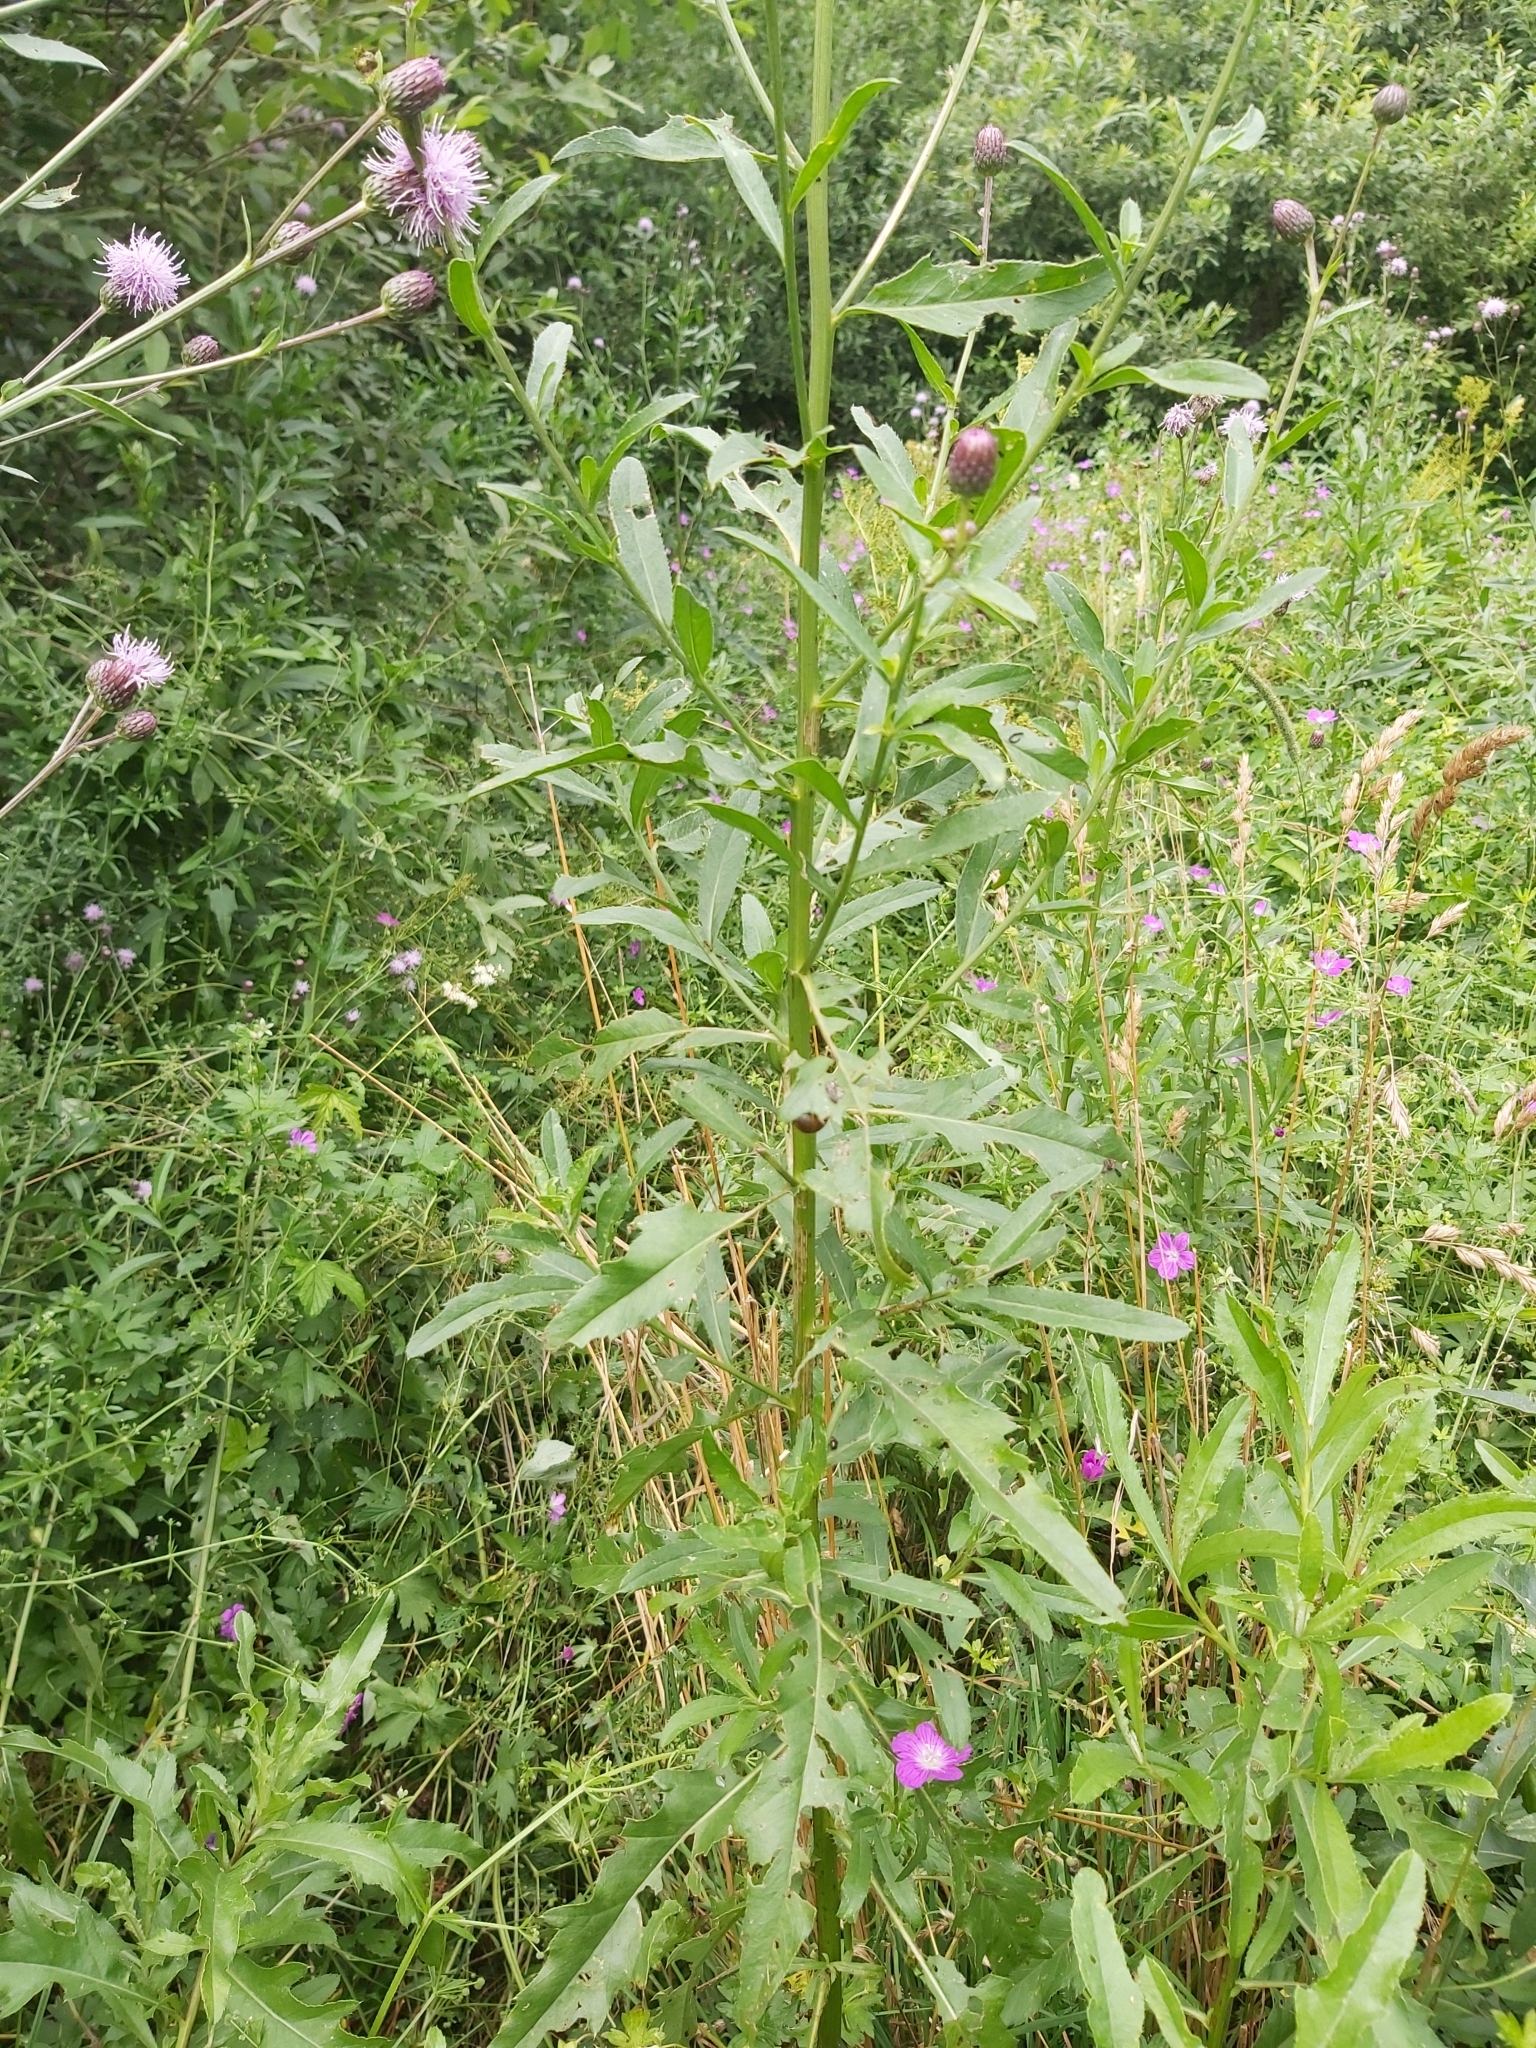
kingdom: Animalia
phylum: Arthropoda
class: Insecta
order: Diptera
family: Tephritidae
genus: Urophora
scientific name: Urophora cardui
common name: Fruit fly
